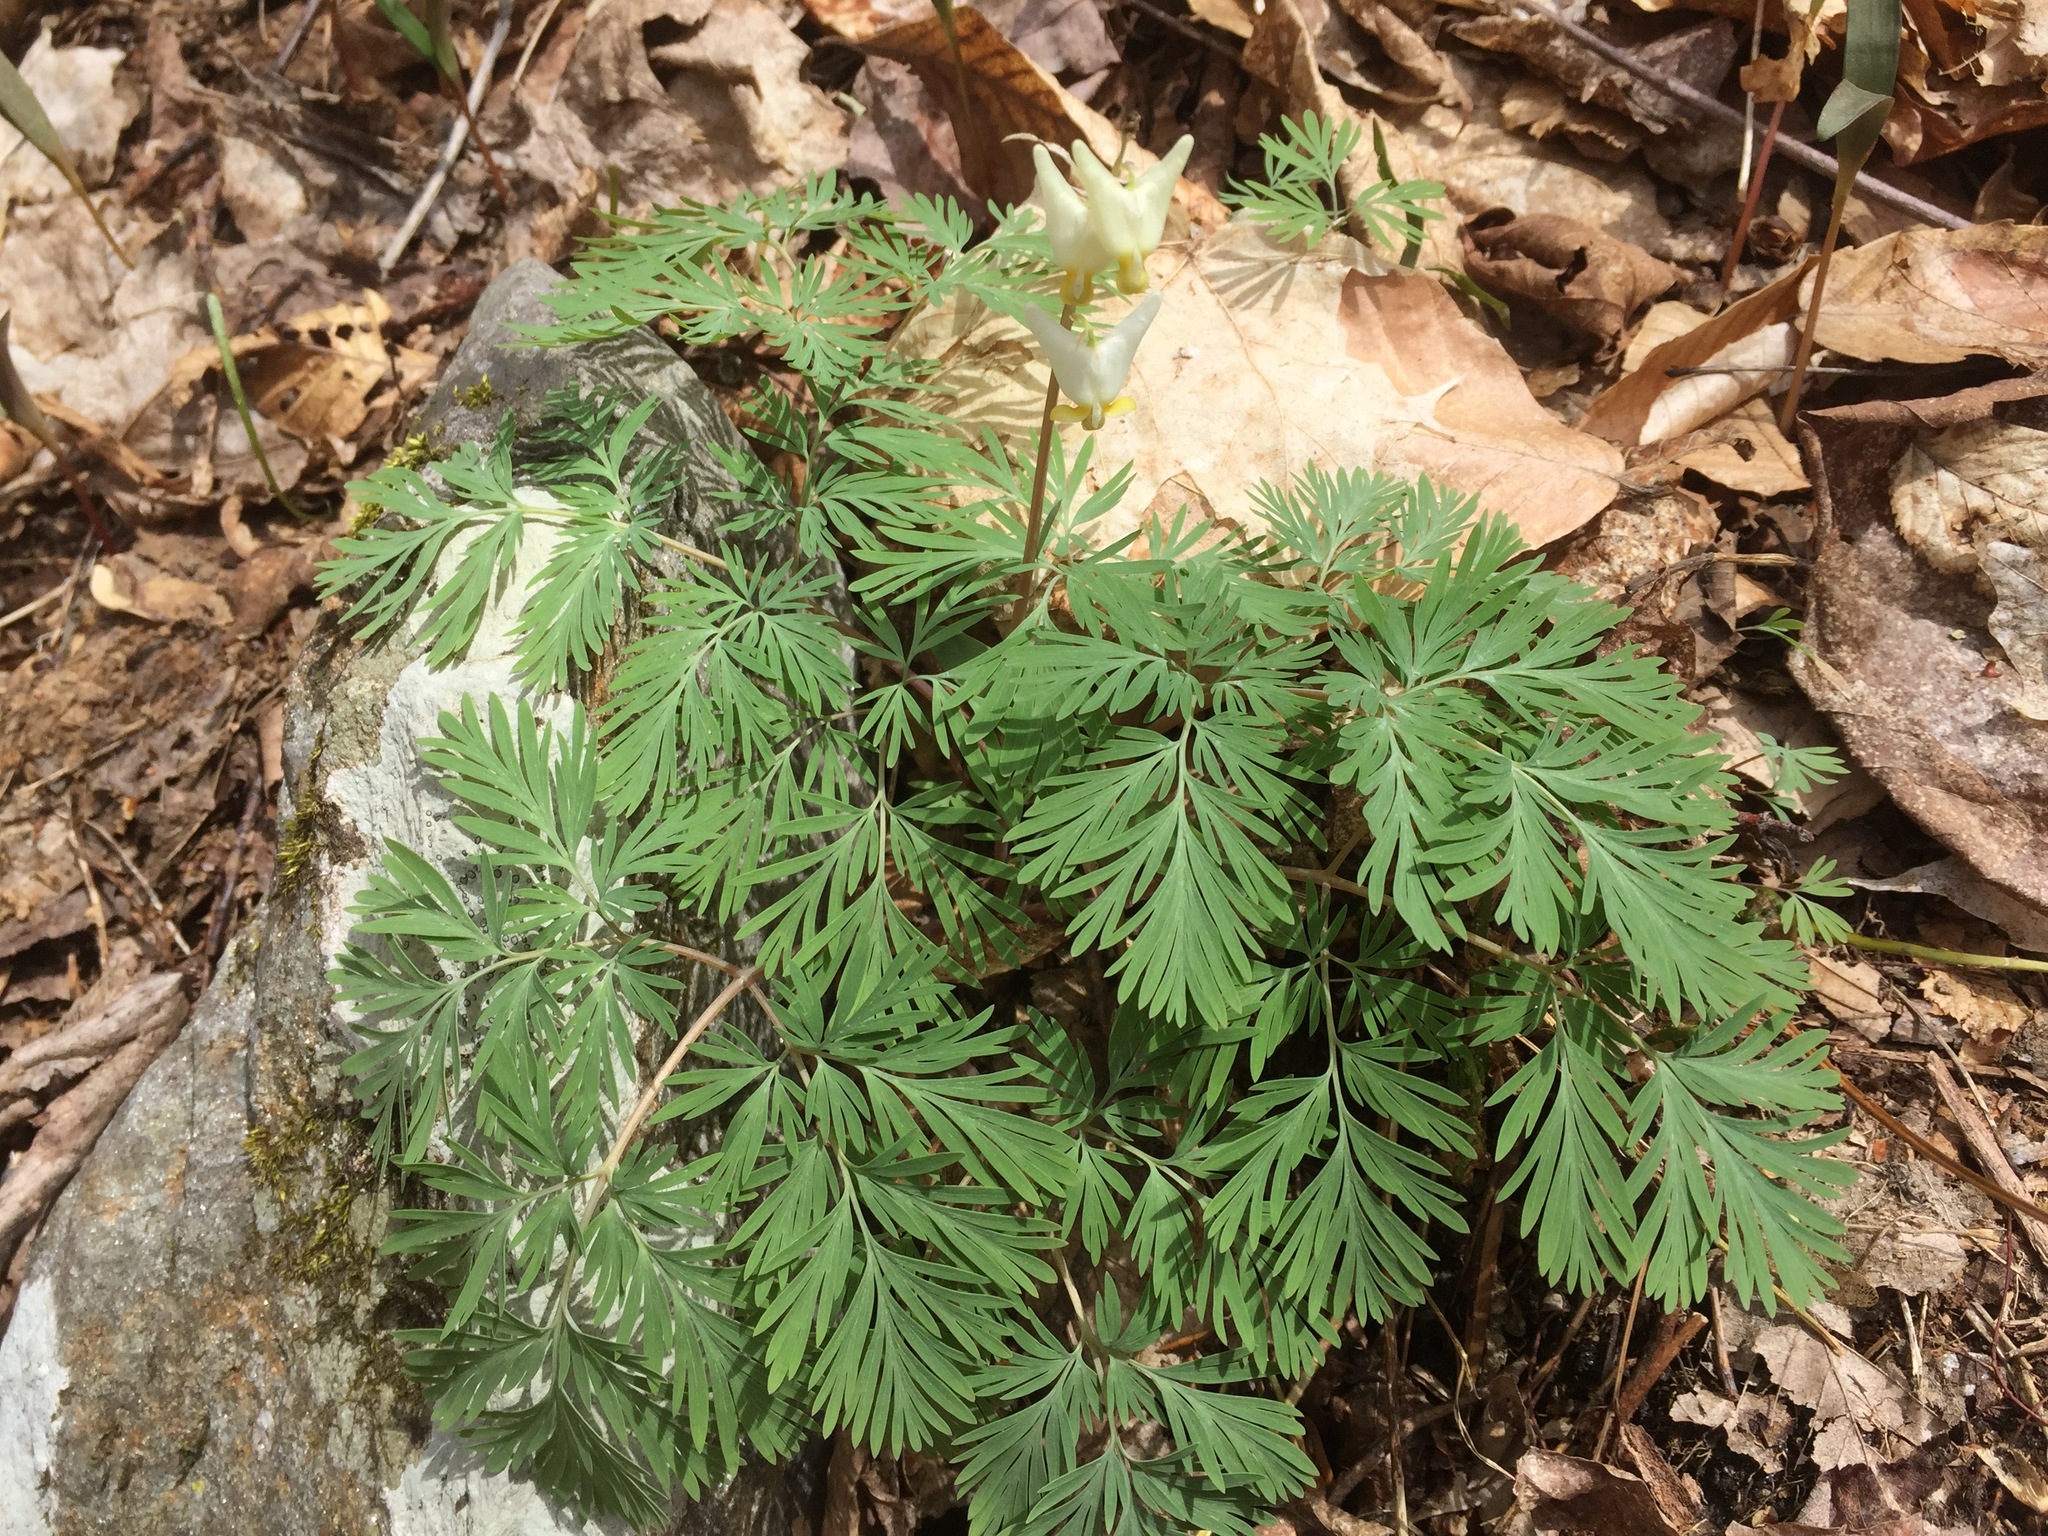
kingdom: Plantae
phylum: Tracheophyta
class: Magnoliopsida
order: Ranunculales
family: Papaveraceae
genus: Dicentra
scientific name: Dicentra cucullaria
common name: Dutchman's breeches
